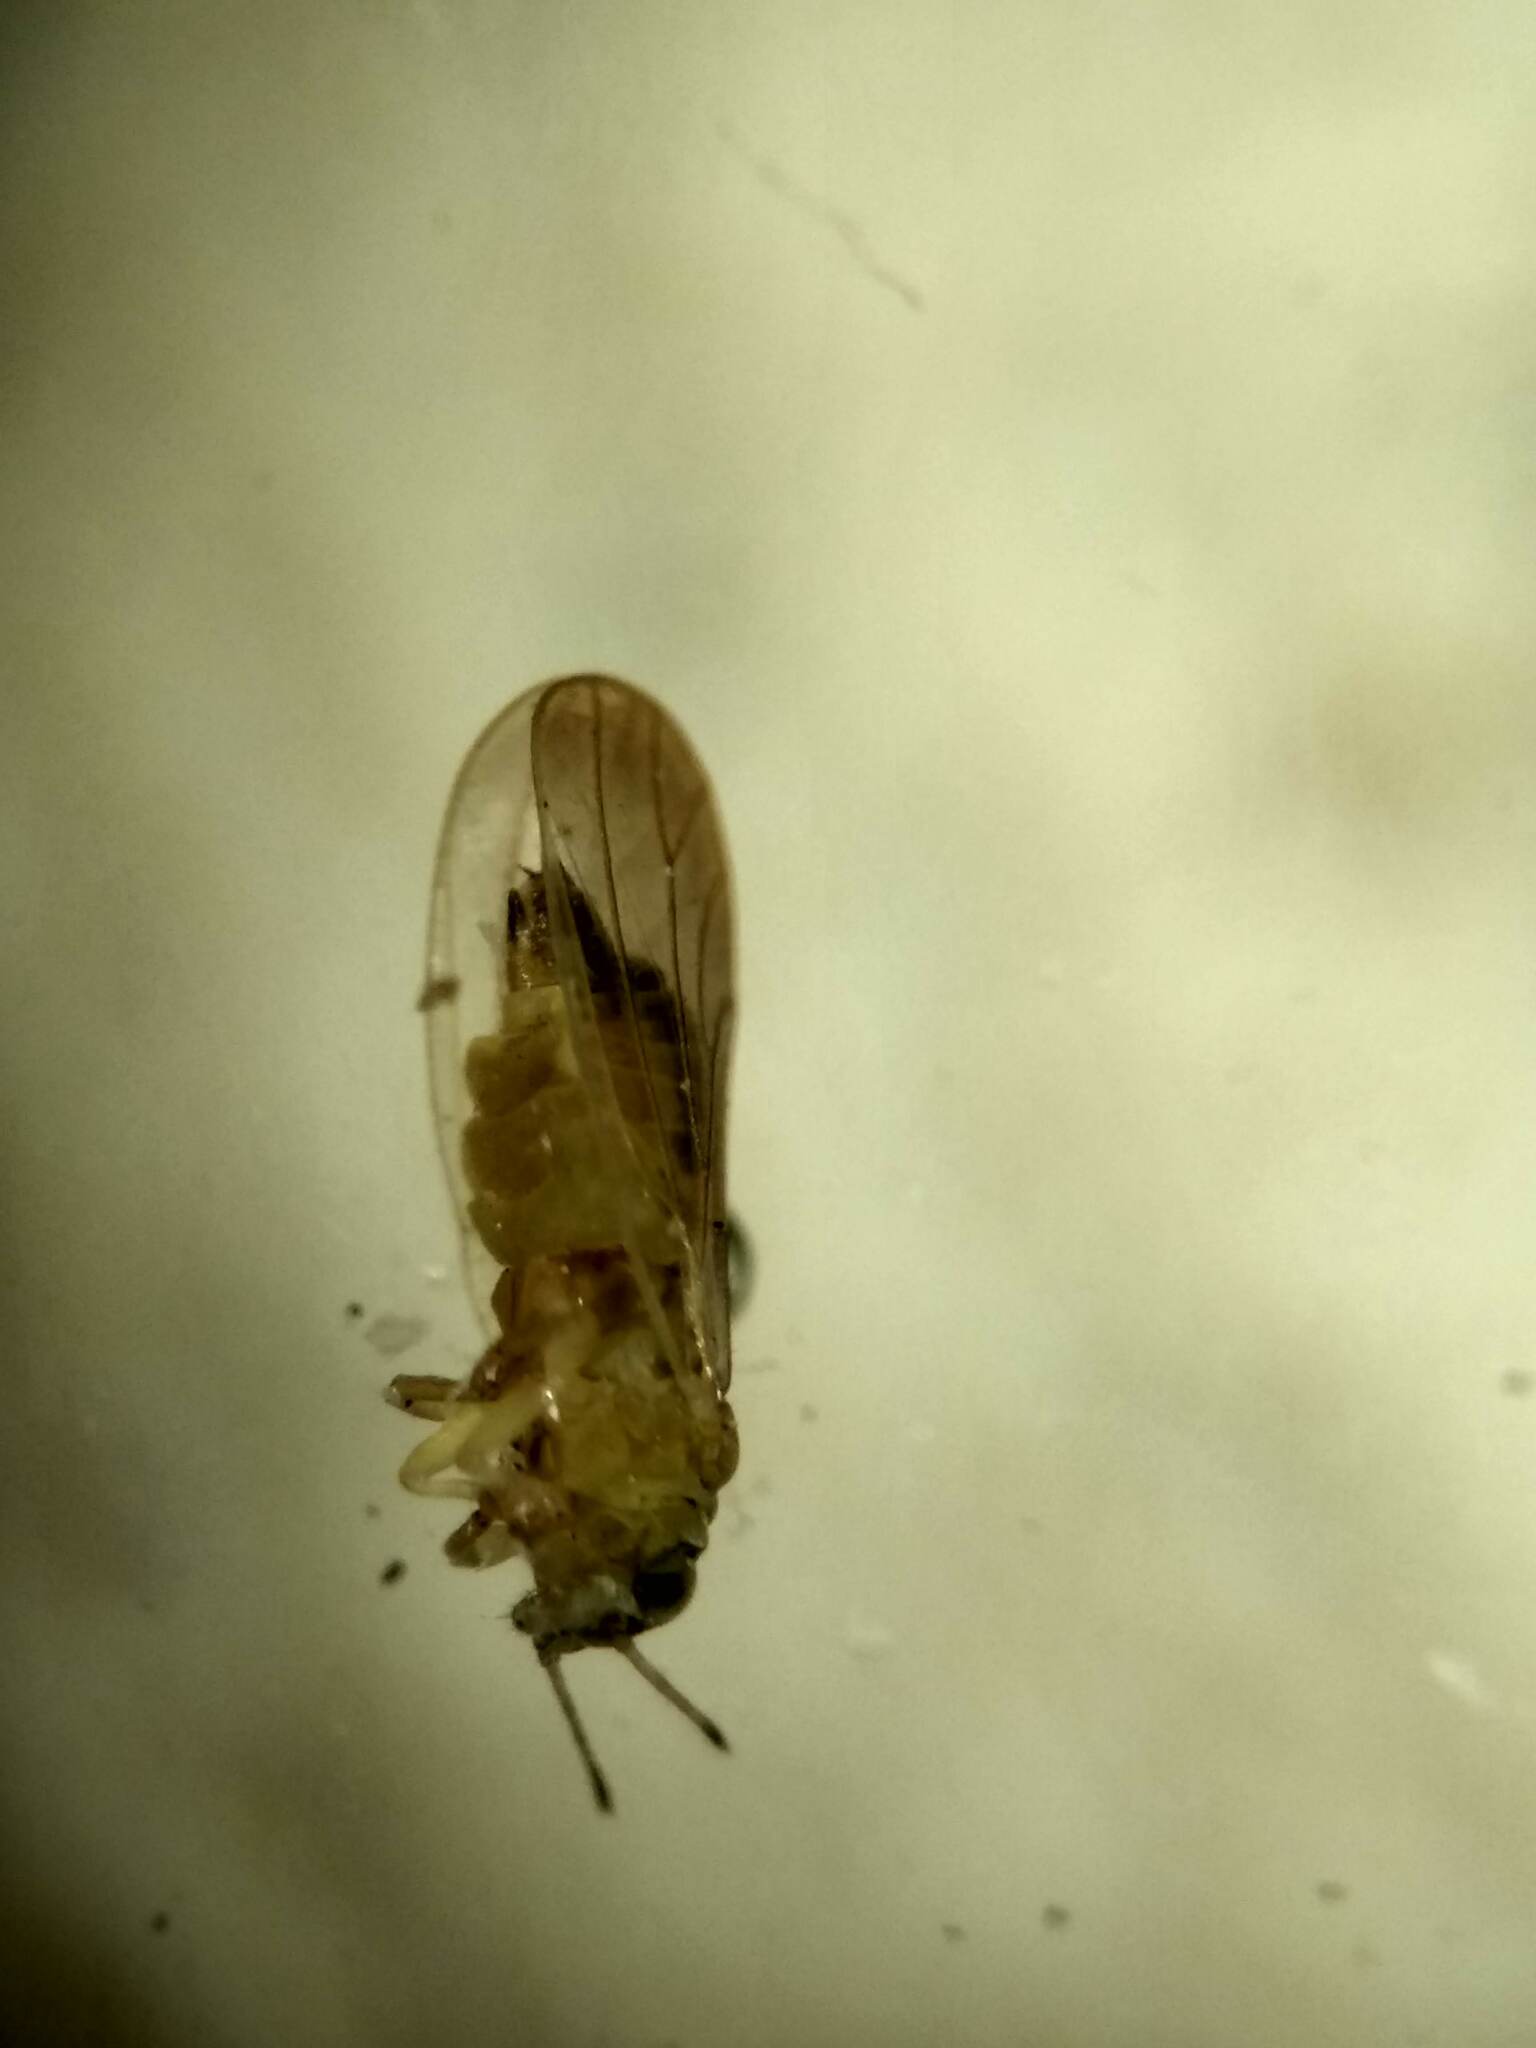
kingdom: Animalia
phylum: Arthropoda
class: Insecta
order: Hemiptera
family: Aphalaridae
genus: Blastopsylla
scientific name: Blastopsylla occidentalis
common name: Reg gum lerp psyllid
